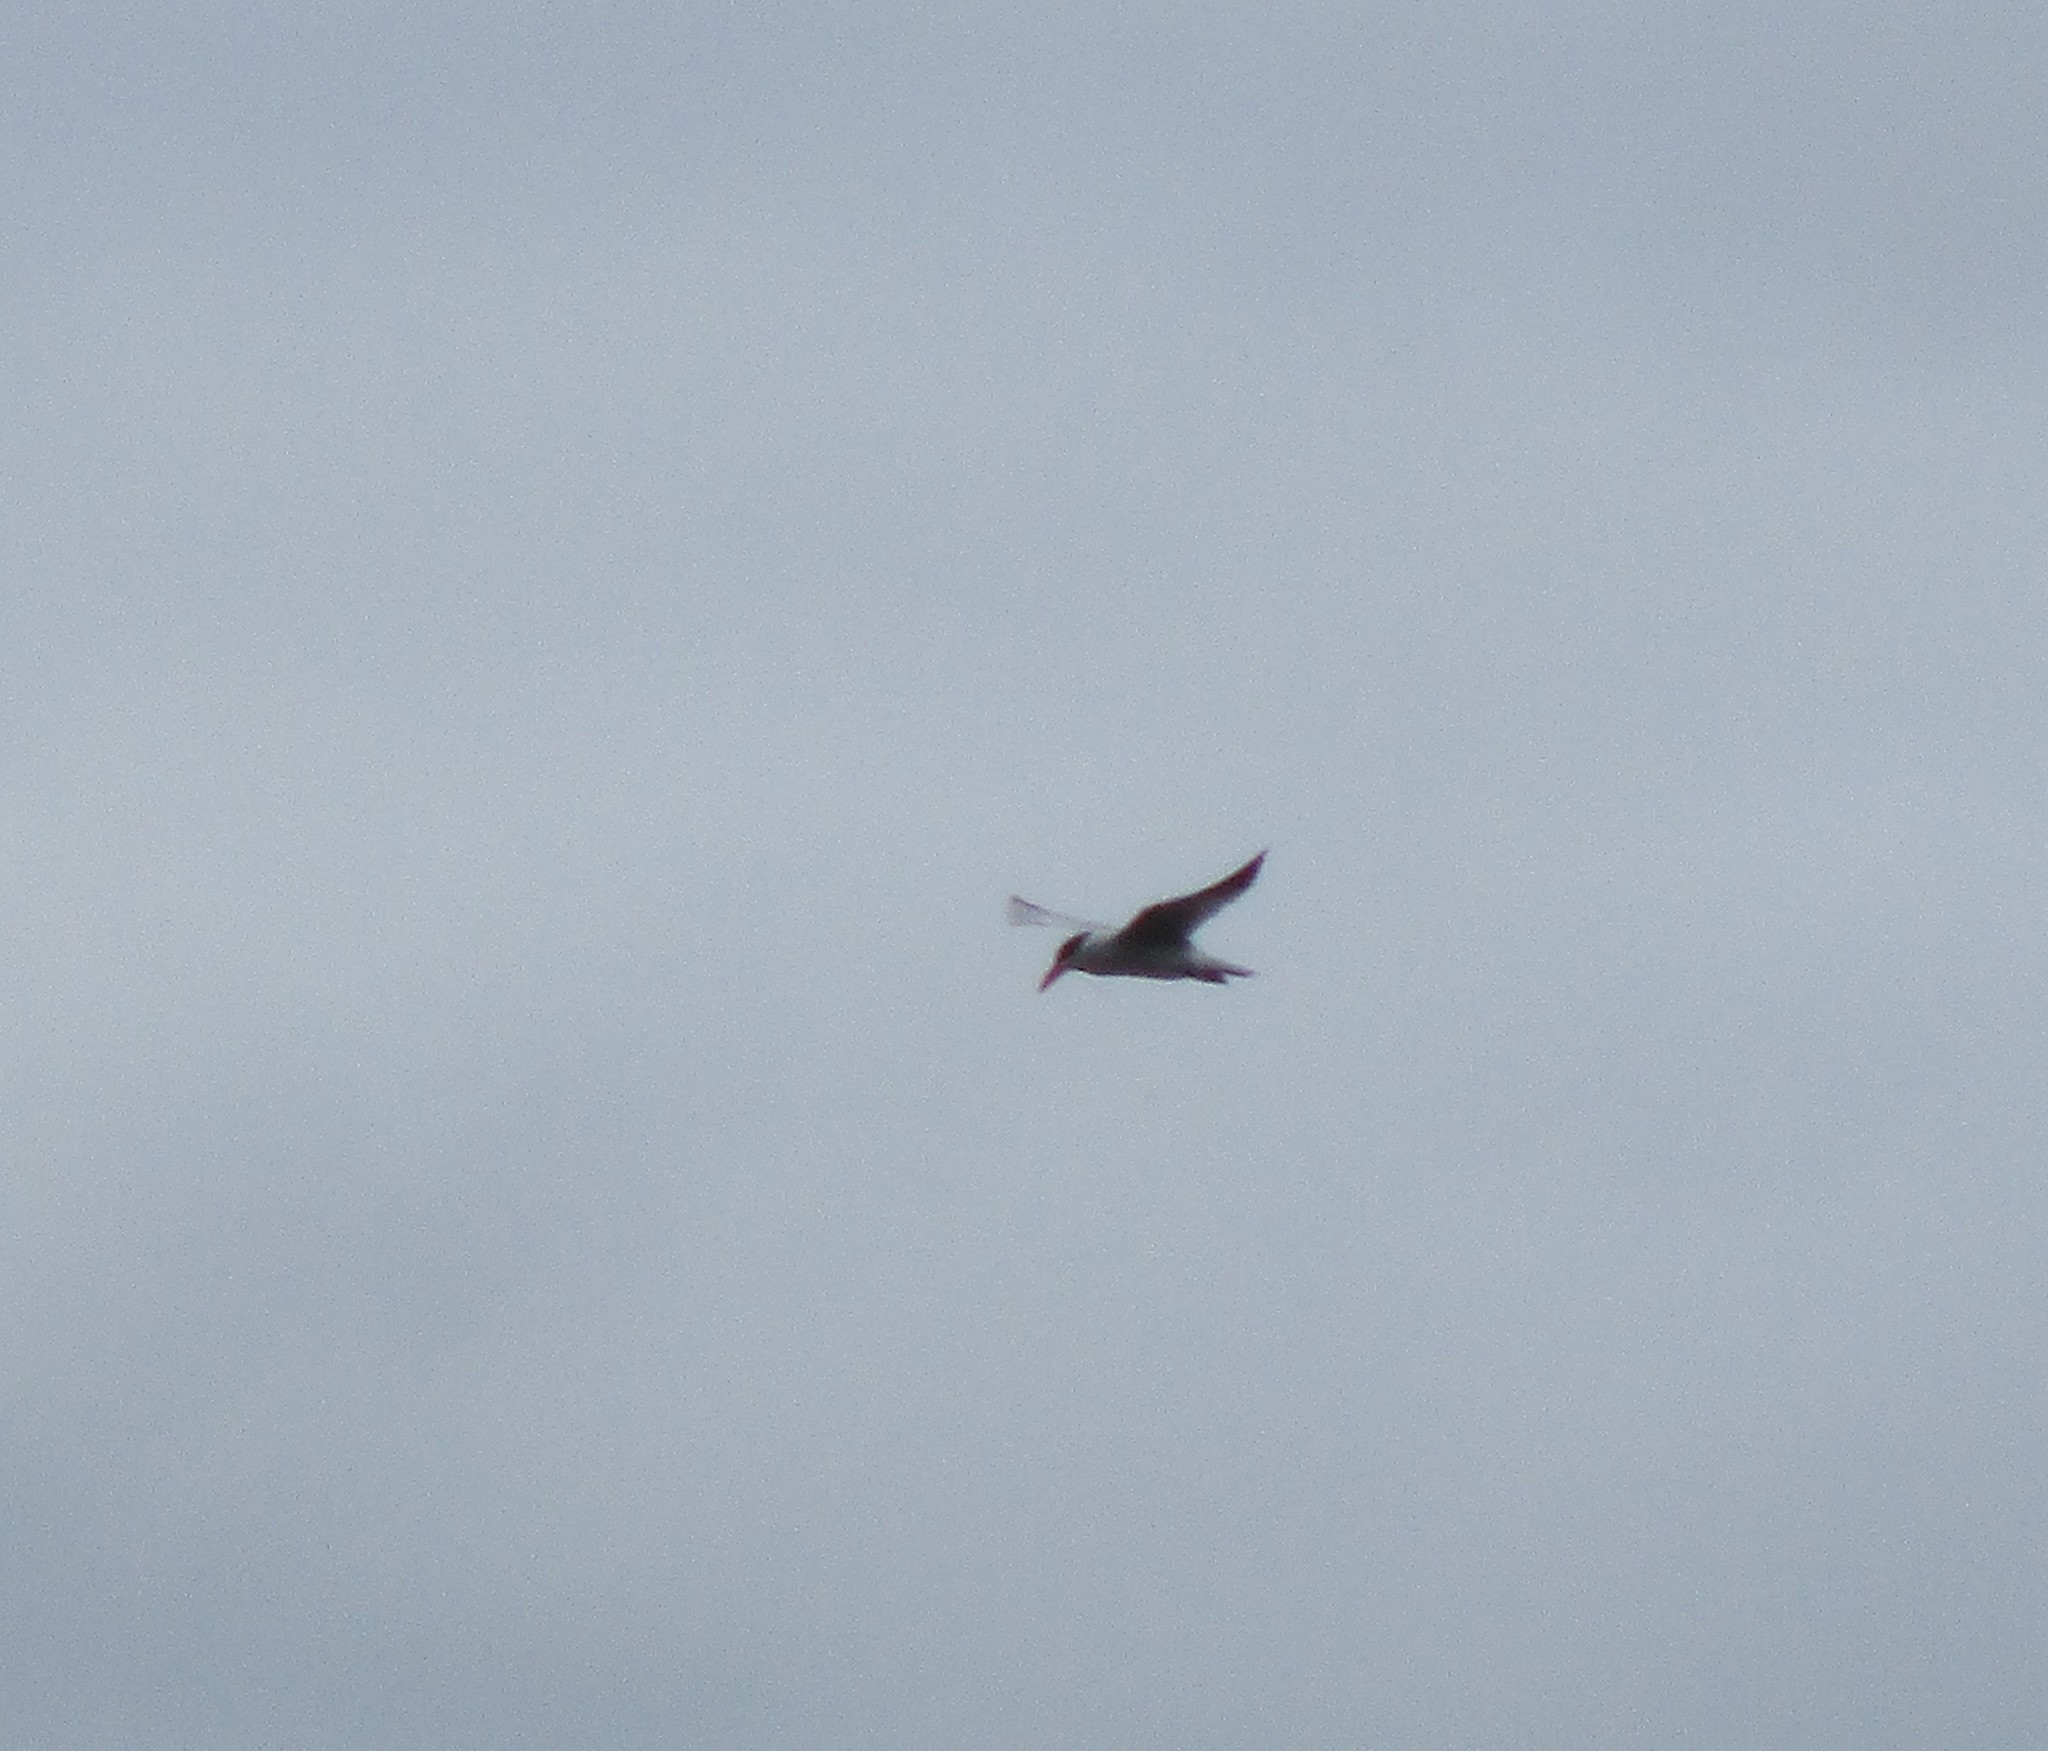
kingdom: Animalia
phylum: Chordata
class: Aves
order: Charadriiformes
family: Laridae
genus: Hydroprogne
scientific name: Hydroprogne caspia
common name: Caspian tern
